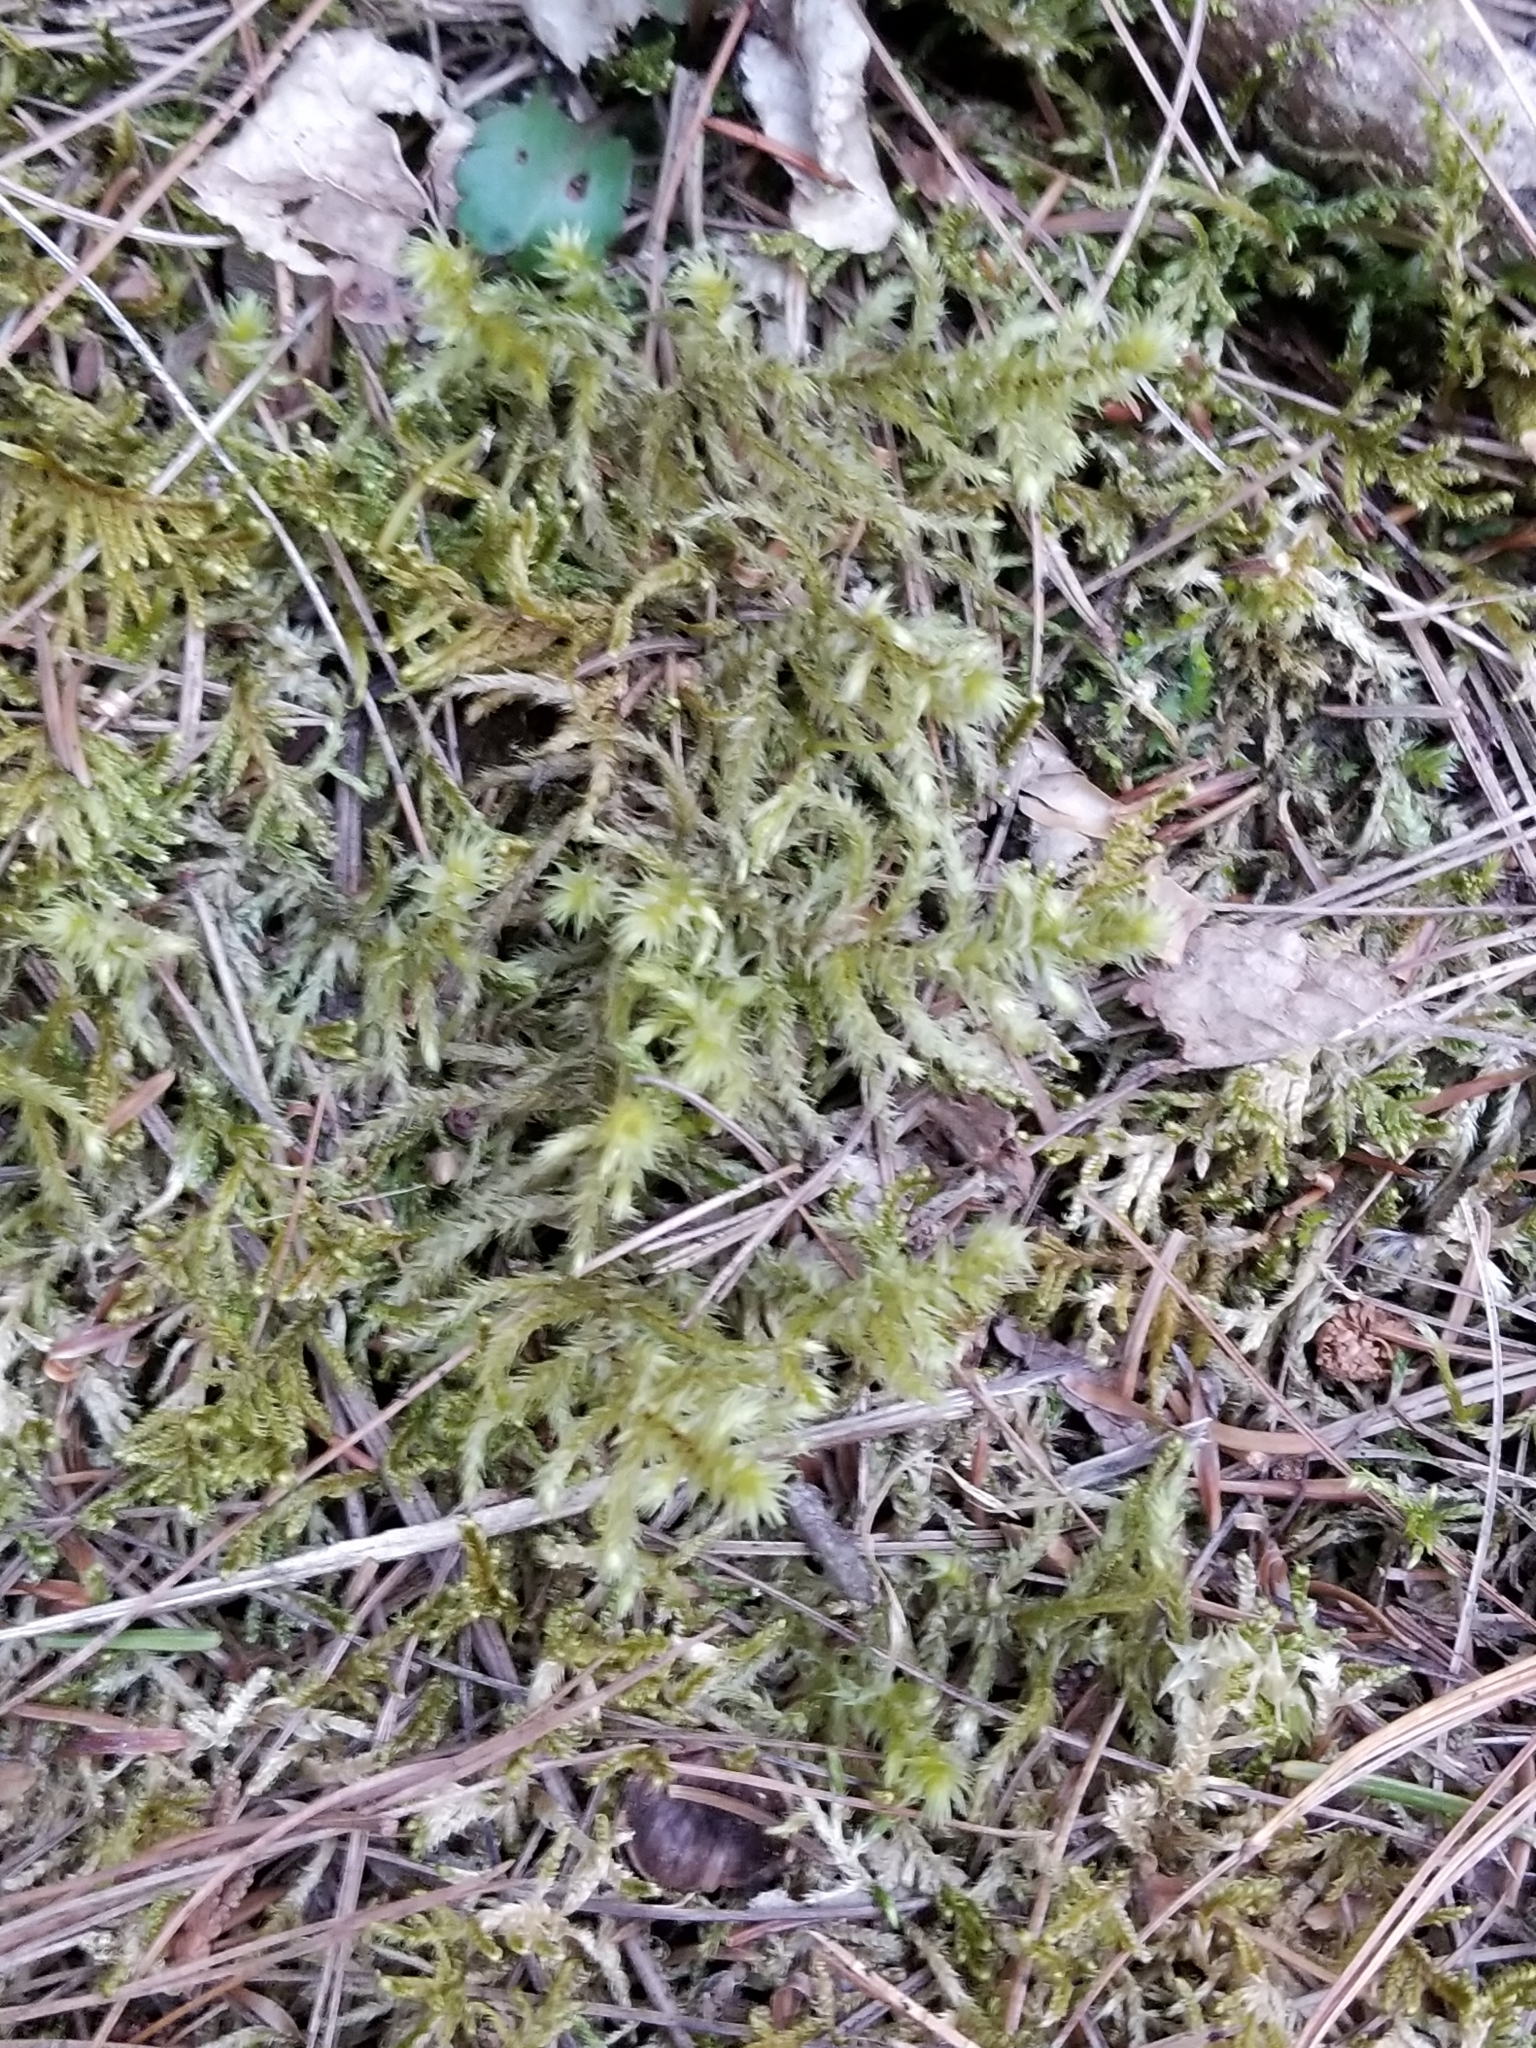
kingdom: Plantae
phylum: Bryophyta
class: Bryopsida
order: Hypnales
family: Hylocomiaceae
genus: Hylocomiadelphus
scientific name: Hylocomiadelphus triquetrus
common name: Rough goose neck moss
